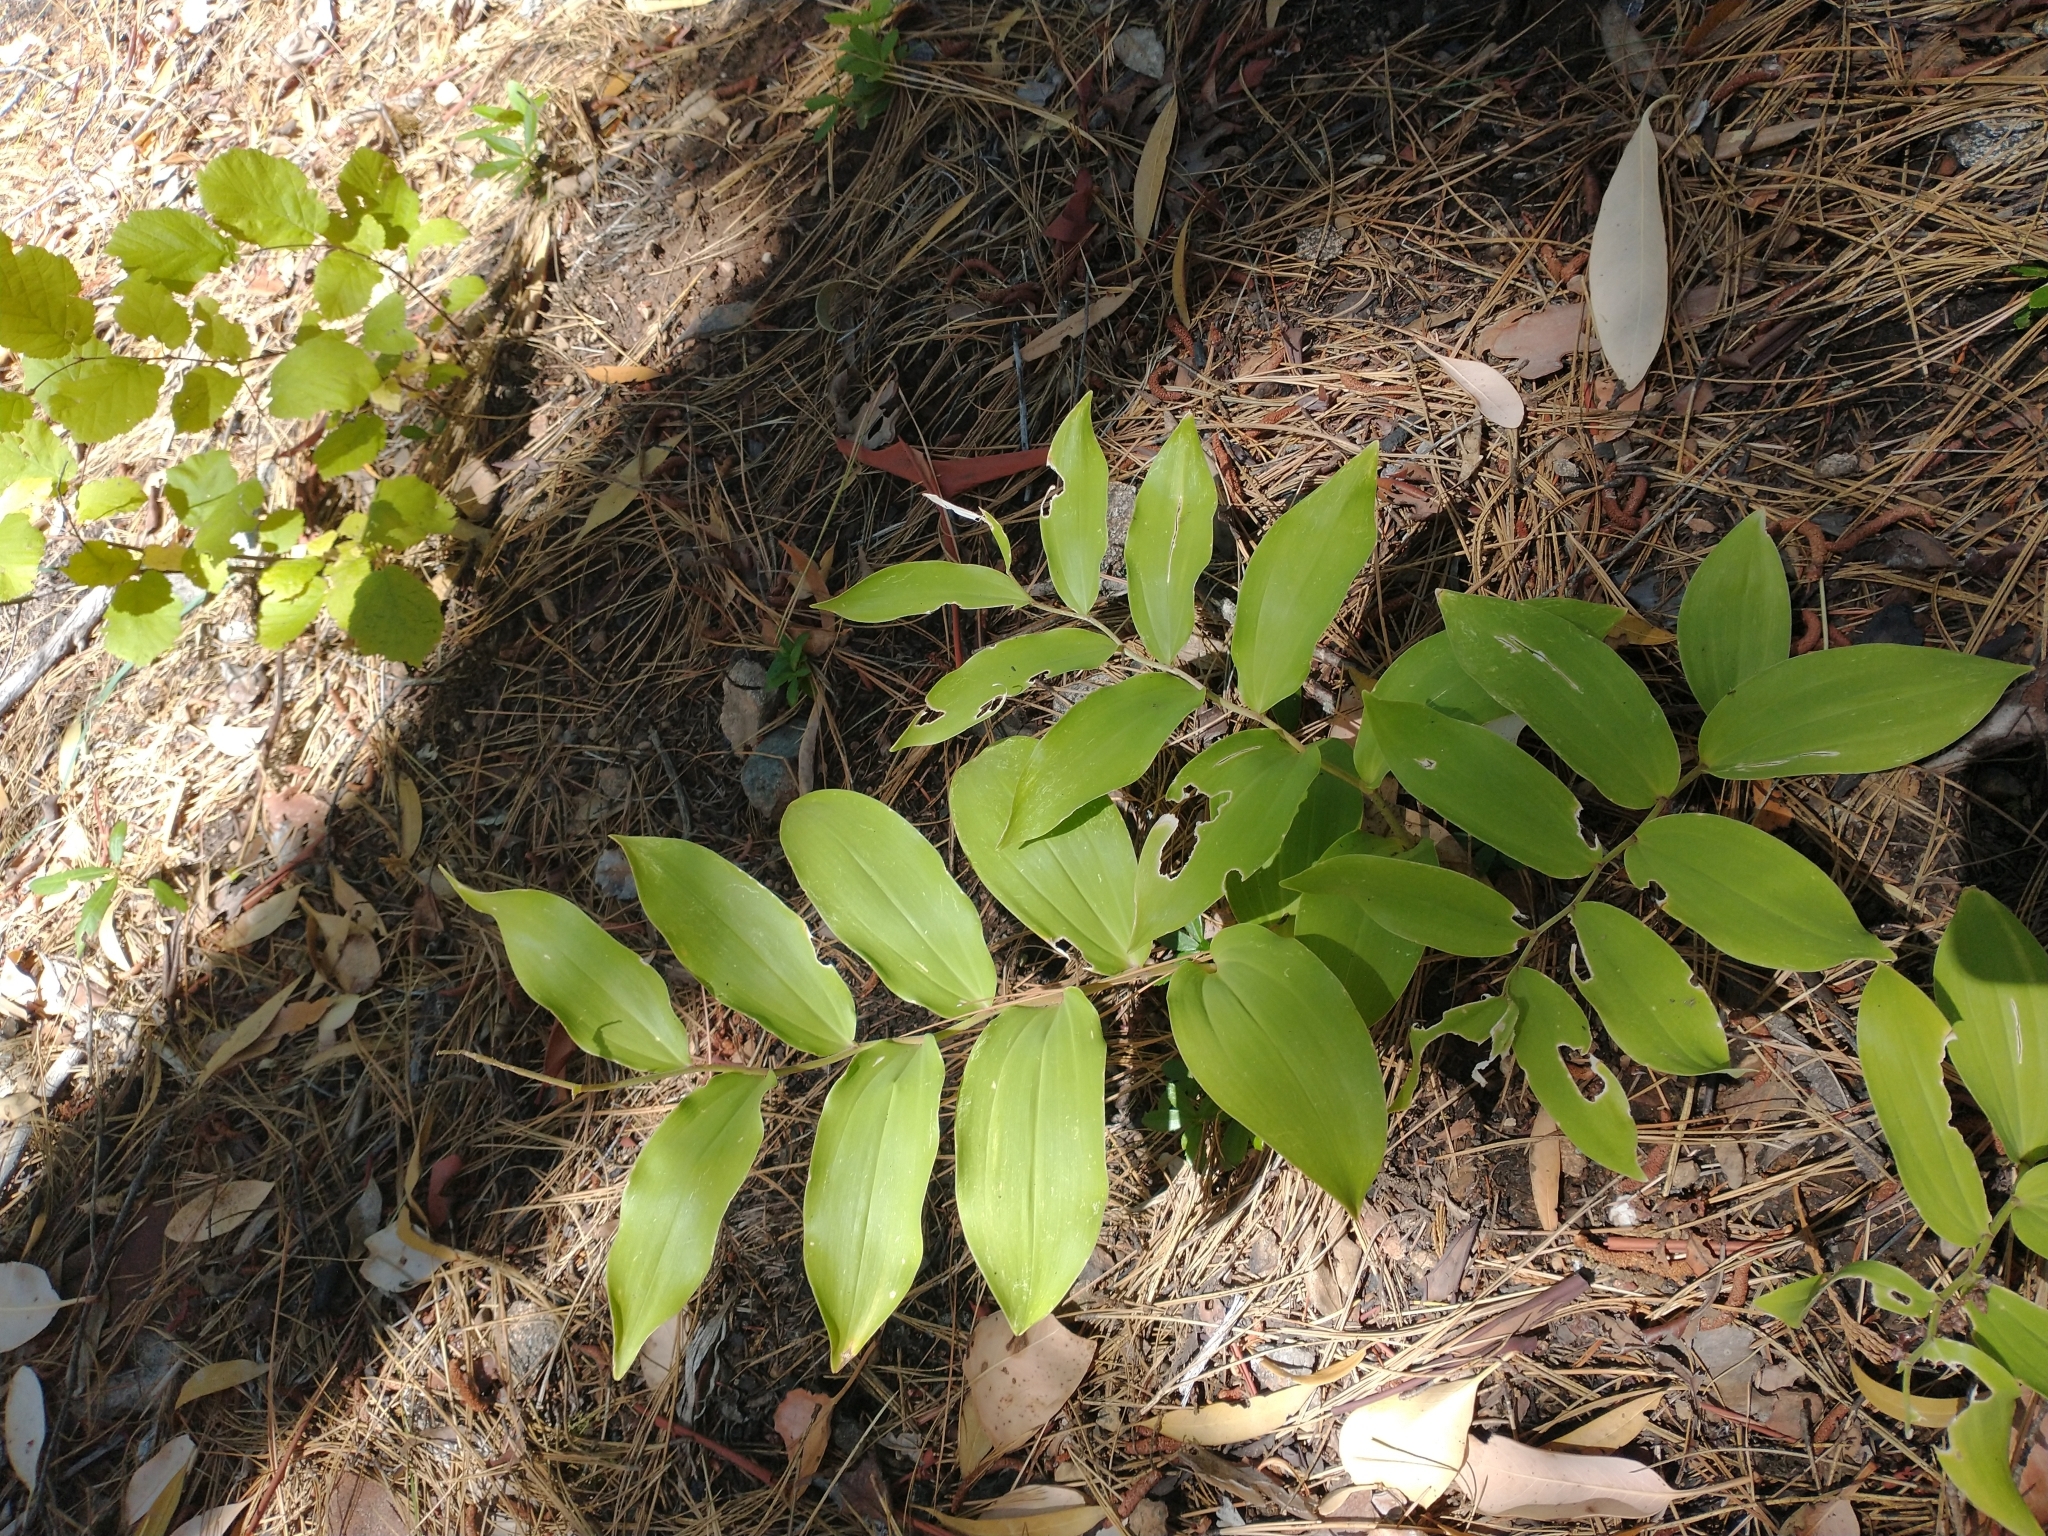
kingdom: Plantae
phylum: Tracheophyta
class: Liliopsida
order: Asparagales
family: Asparagaceae
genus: Maianthemum
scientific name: Maianthemum racemosum
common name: False spikenard
